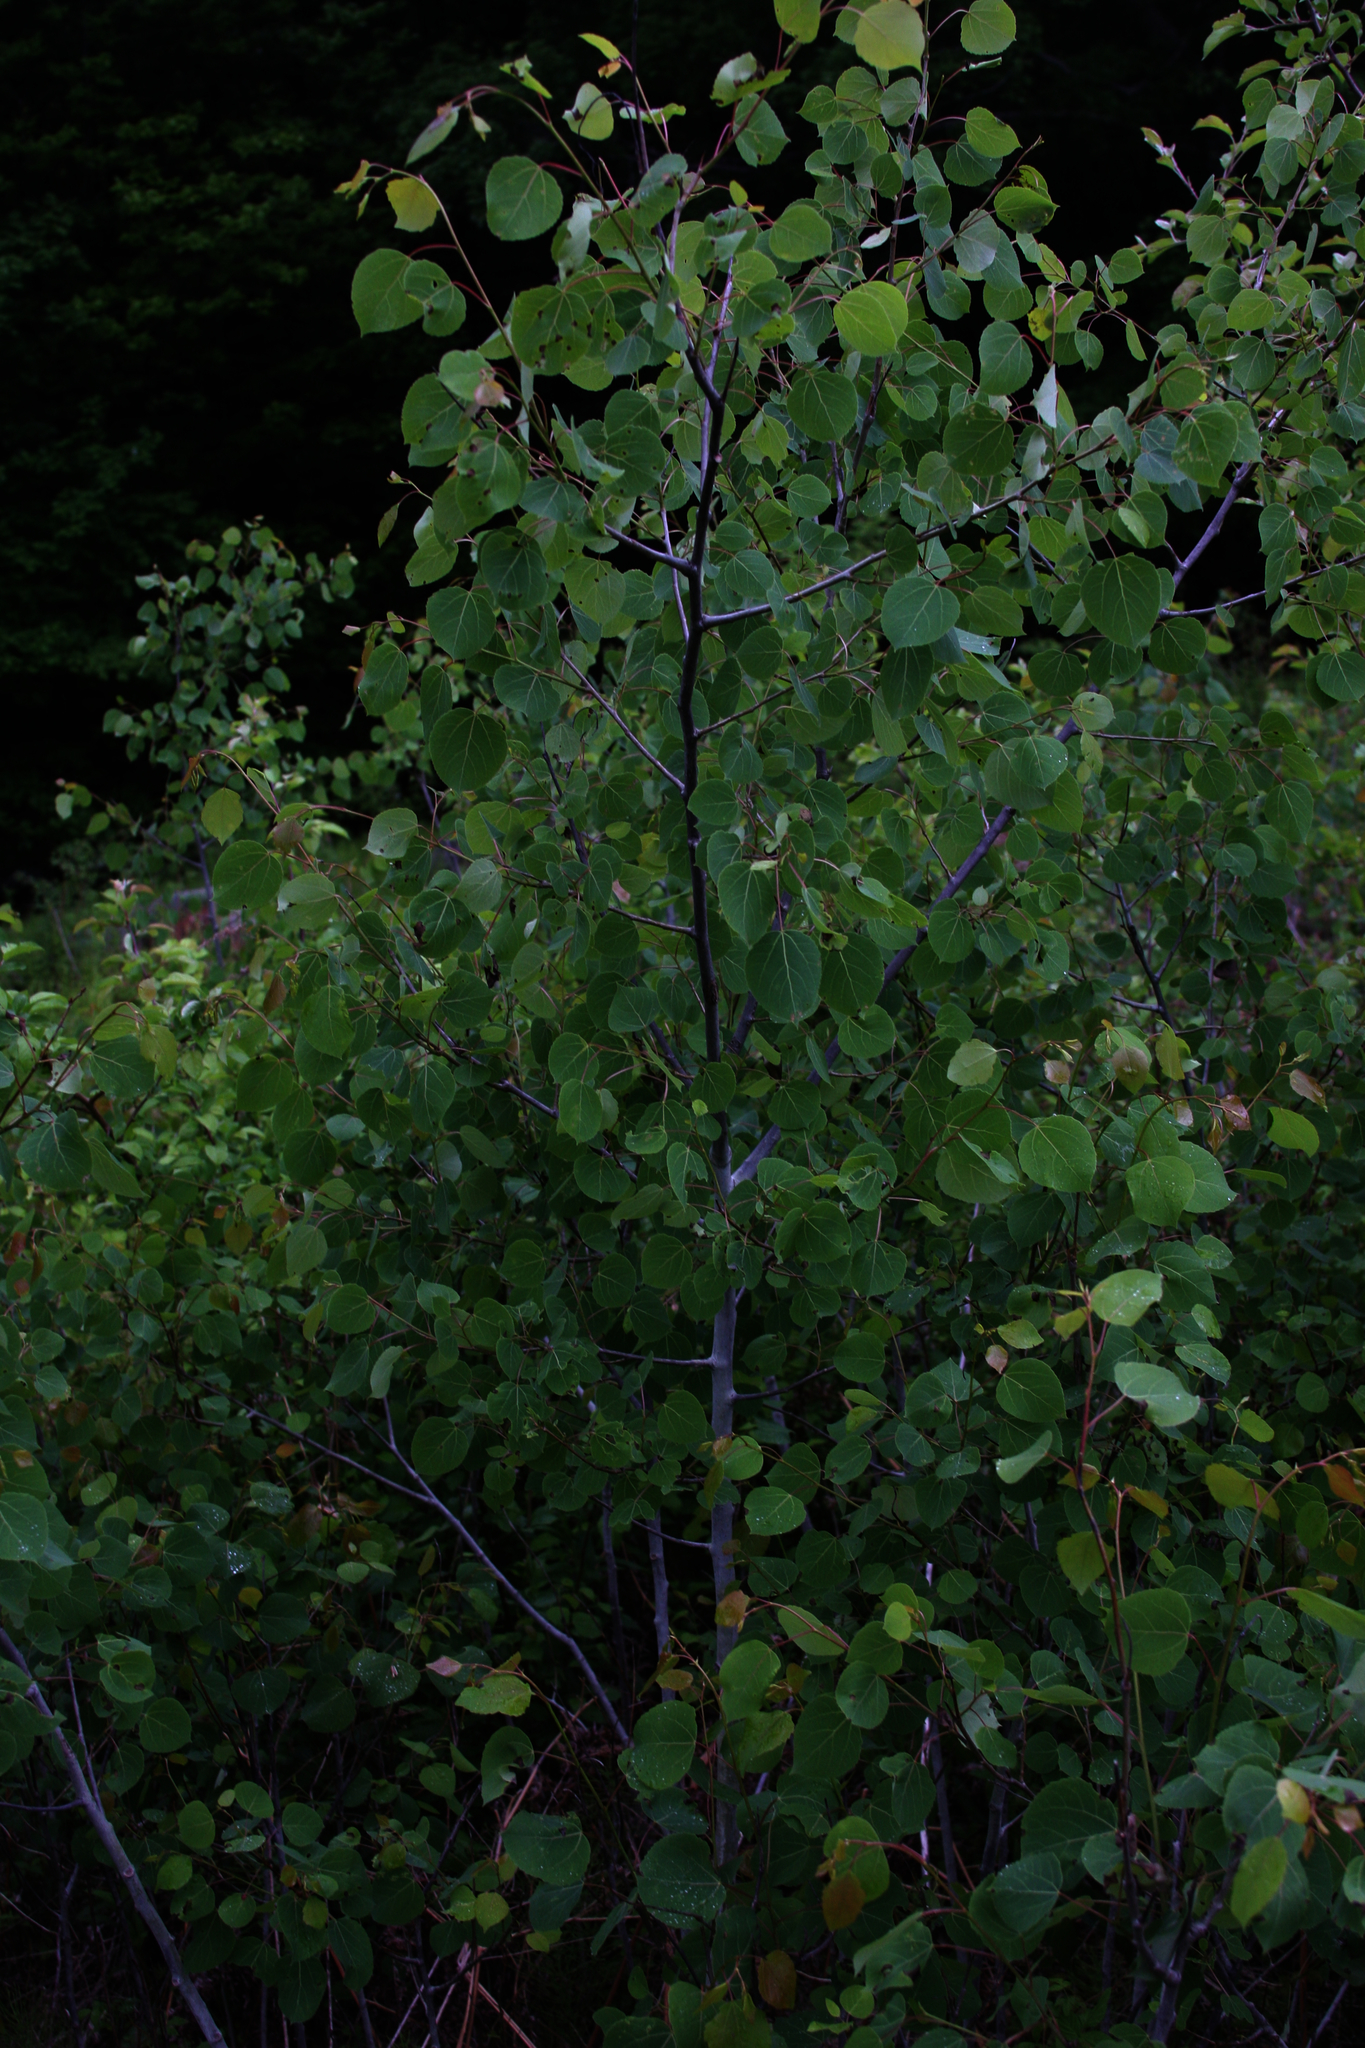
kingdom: Plantae
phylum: Tracheophyta
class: Magnoliopsida
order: Malpighiales
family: Salicaceae
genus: Populus
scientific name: Populus tremuloides
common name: Quaking aspen
